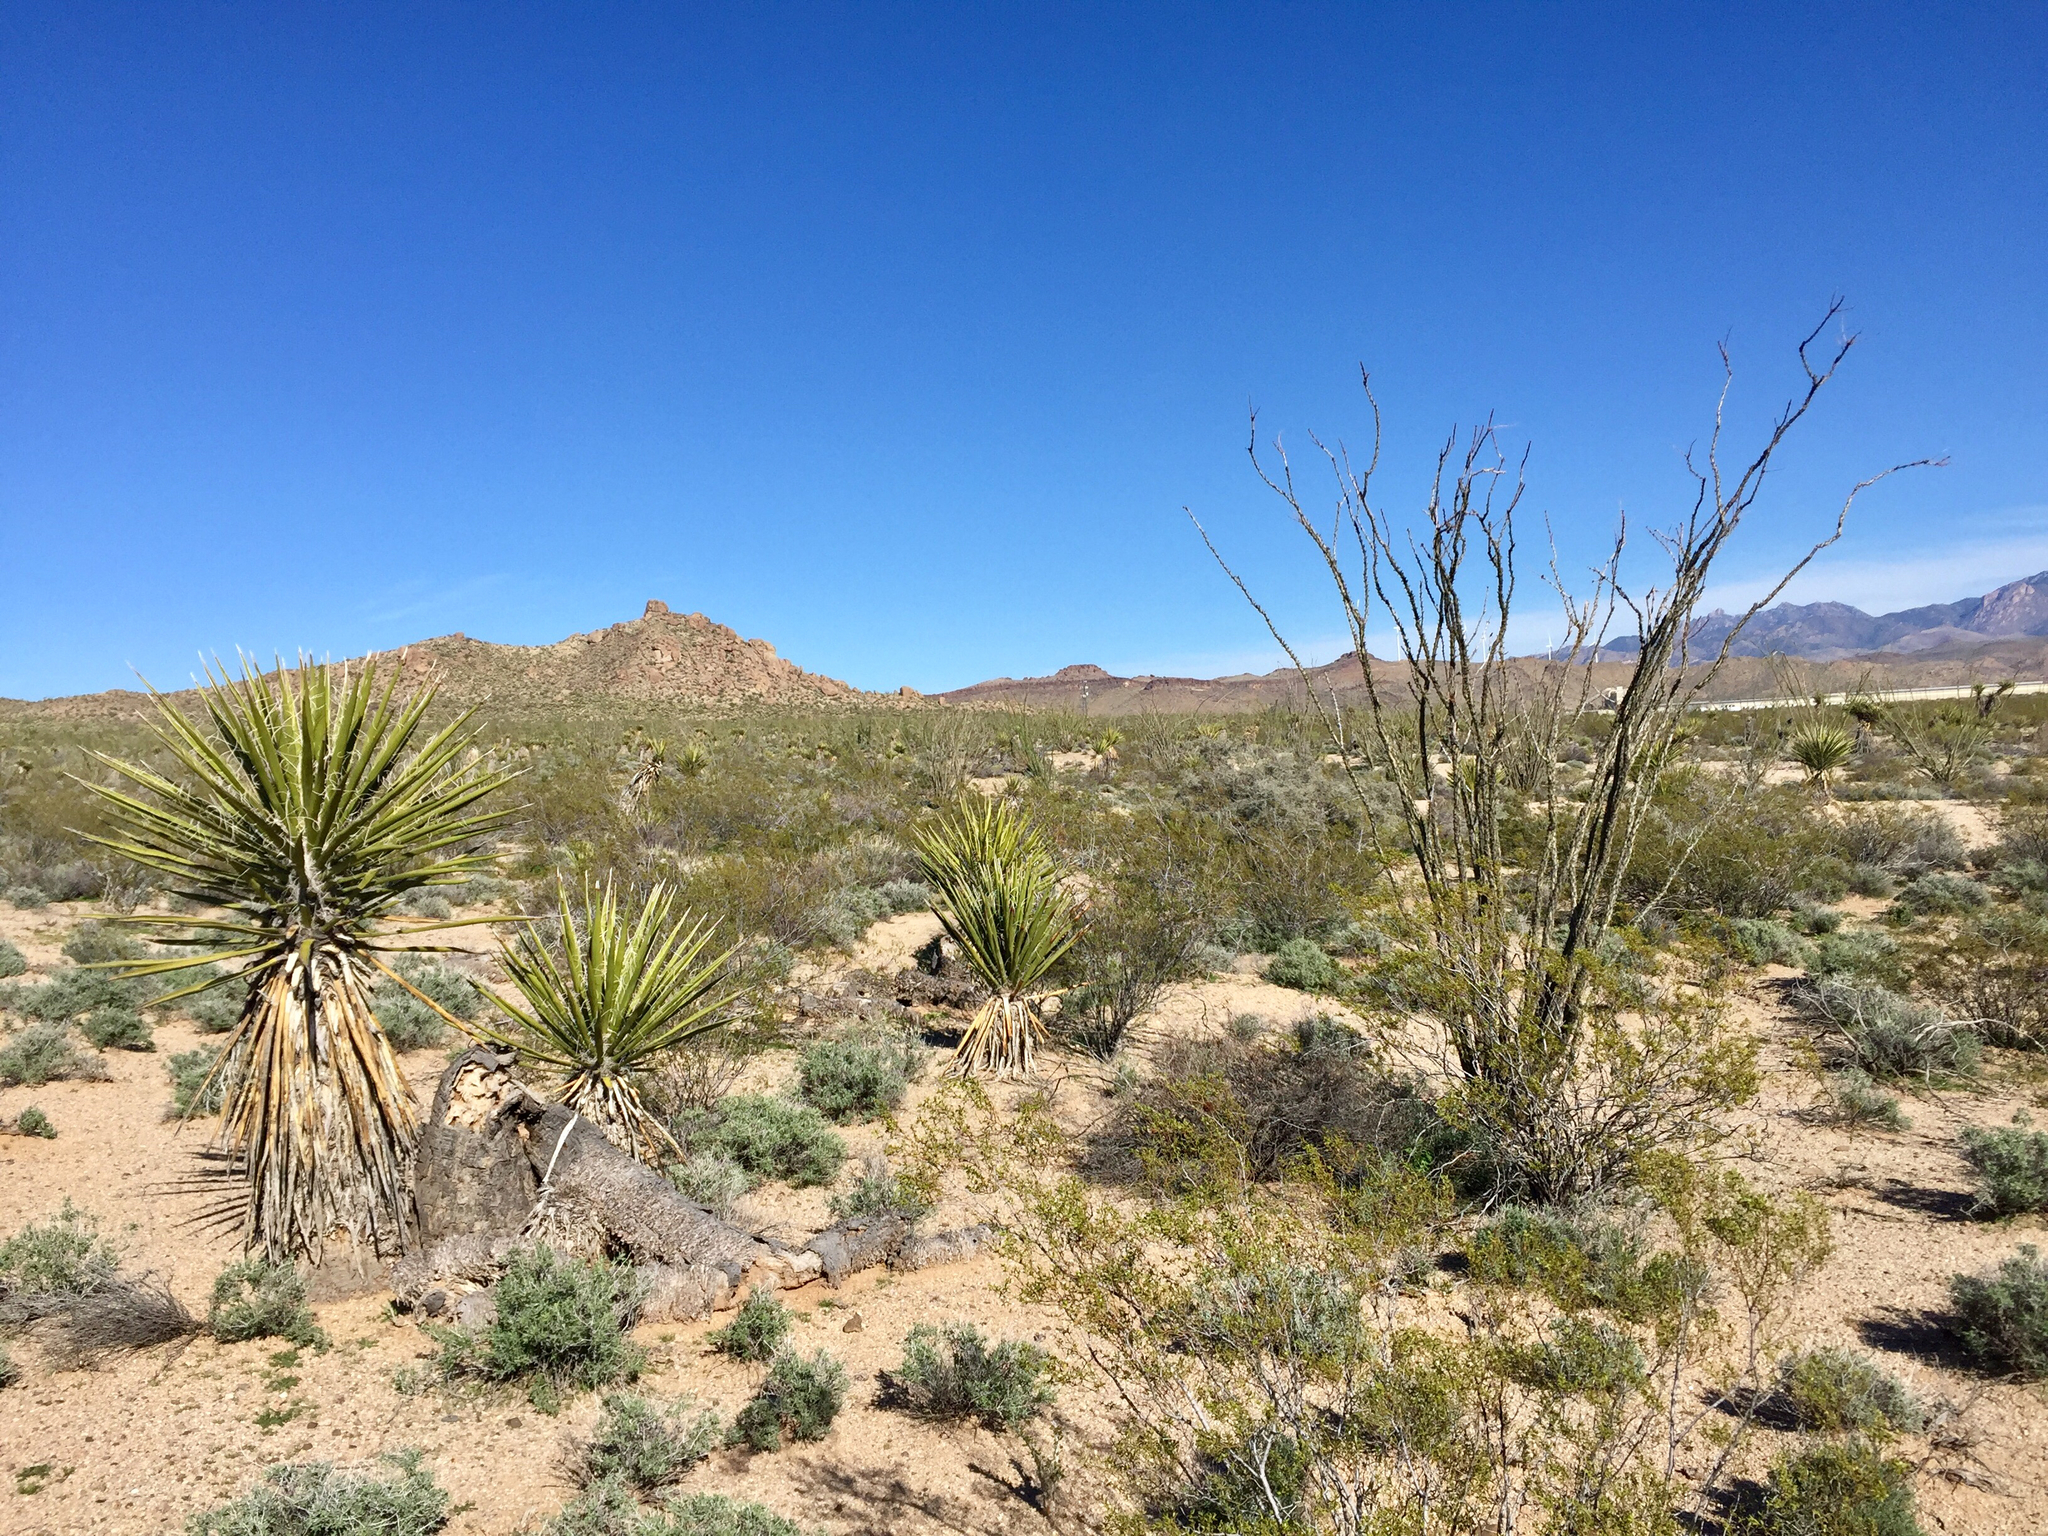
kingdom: Plantae
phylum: Tracheophyta
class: Magnoliopsida
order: Ericales
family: Fouquieriaceae
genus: Fouquieria
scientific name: Fouquieria splendens
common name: Vine-cactus
